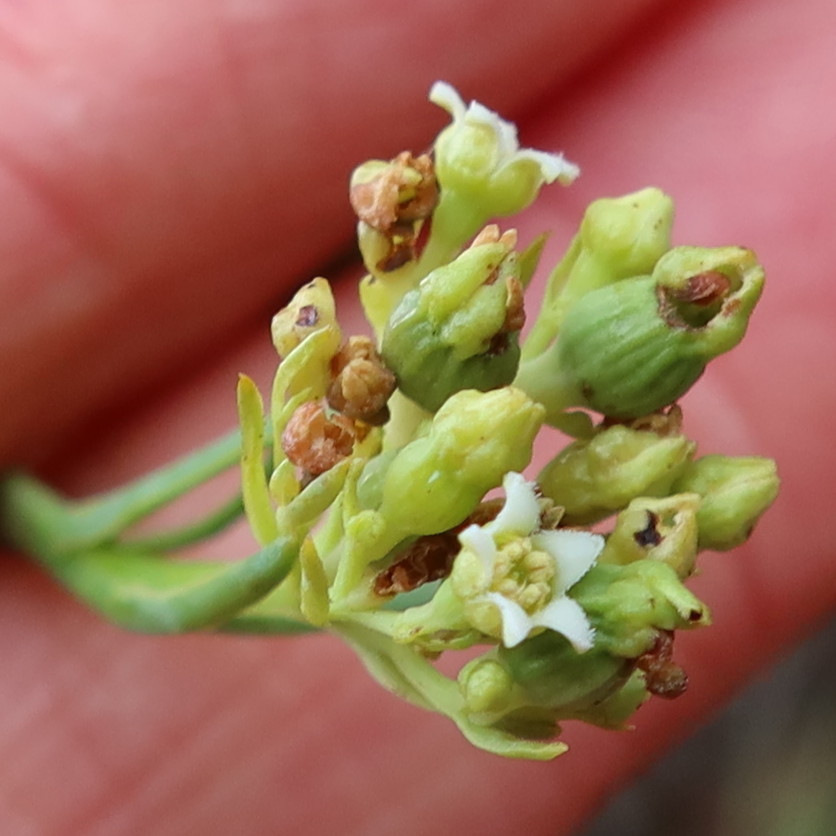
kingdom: Plantae
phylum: Tracheophyta
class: Magnoliopsida
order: Santalales
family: Thesiaceae
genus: Thesium
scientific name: Thesium strictum
